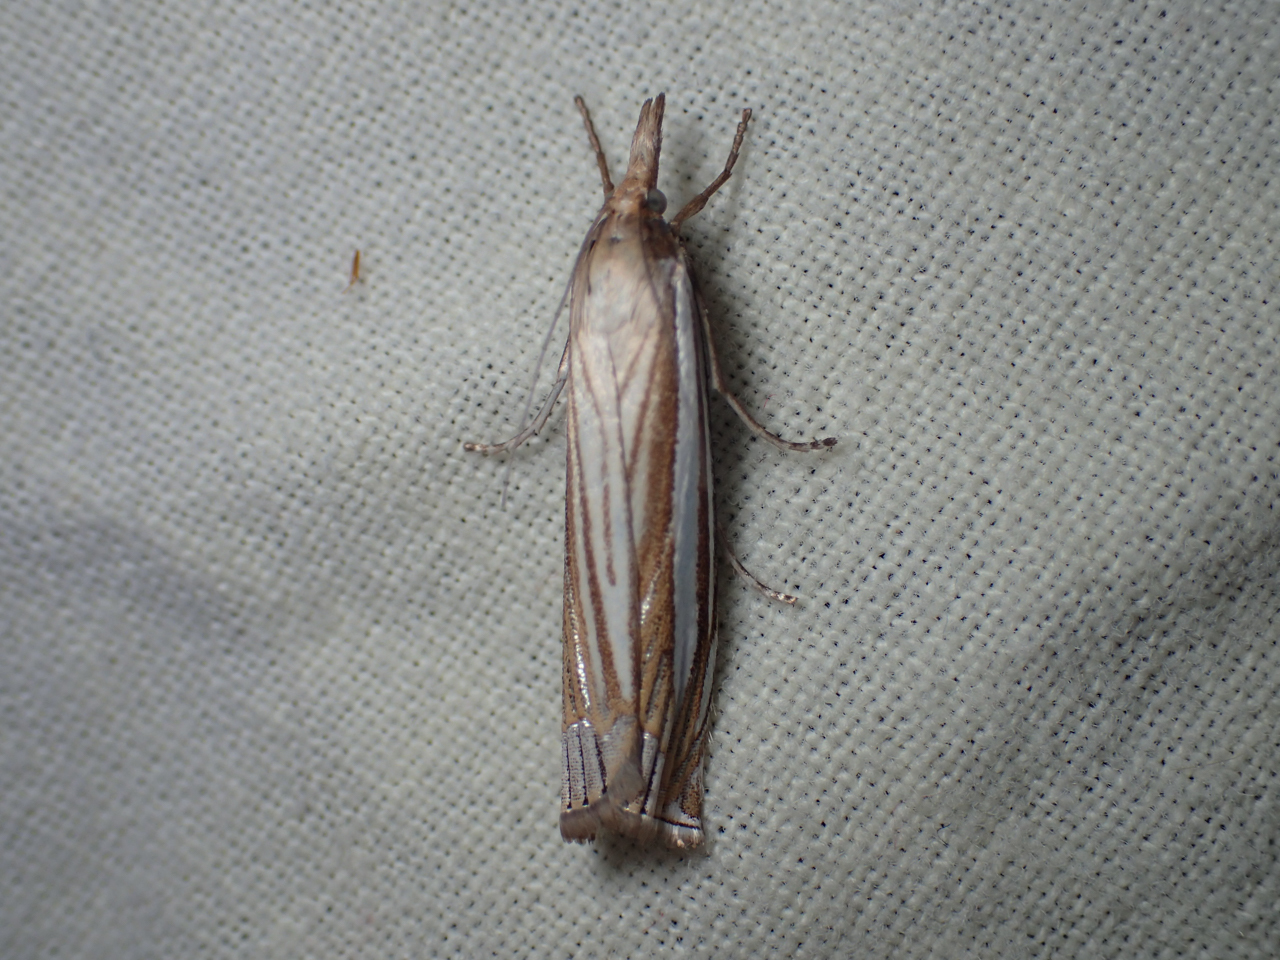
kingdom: Animalia
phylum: Arthropoda
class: Insecta
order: Lepidoptera
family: Crambidae
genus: Crambus
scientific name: Crambus laqueatellus
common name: Eastern grass-veneer
